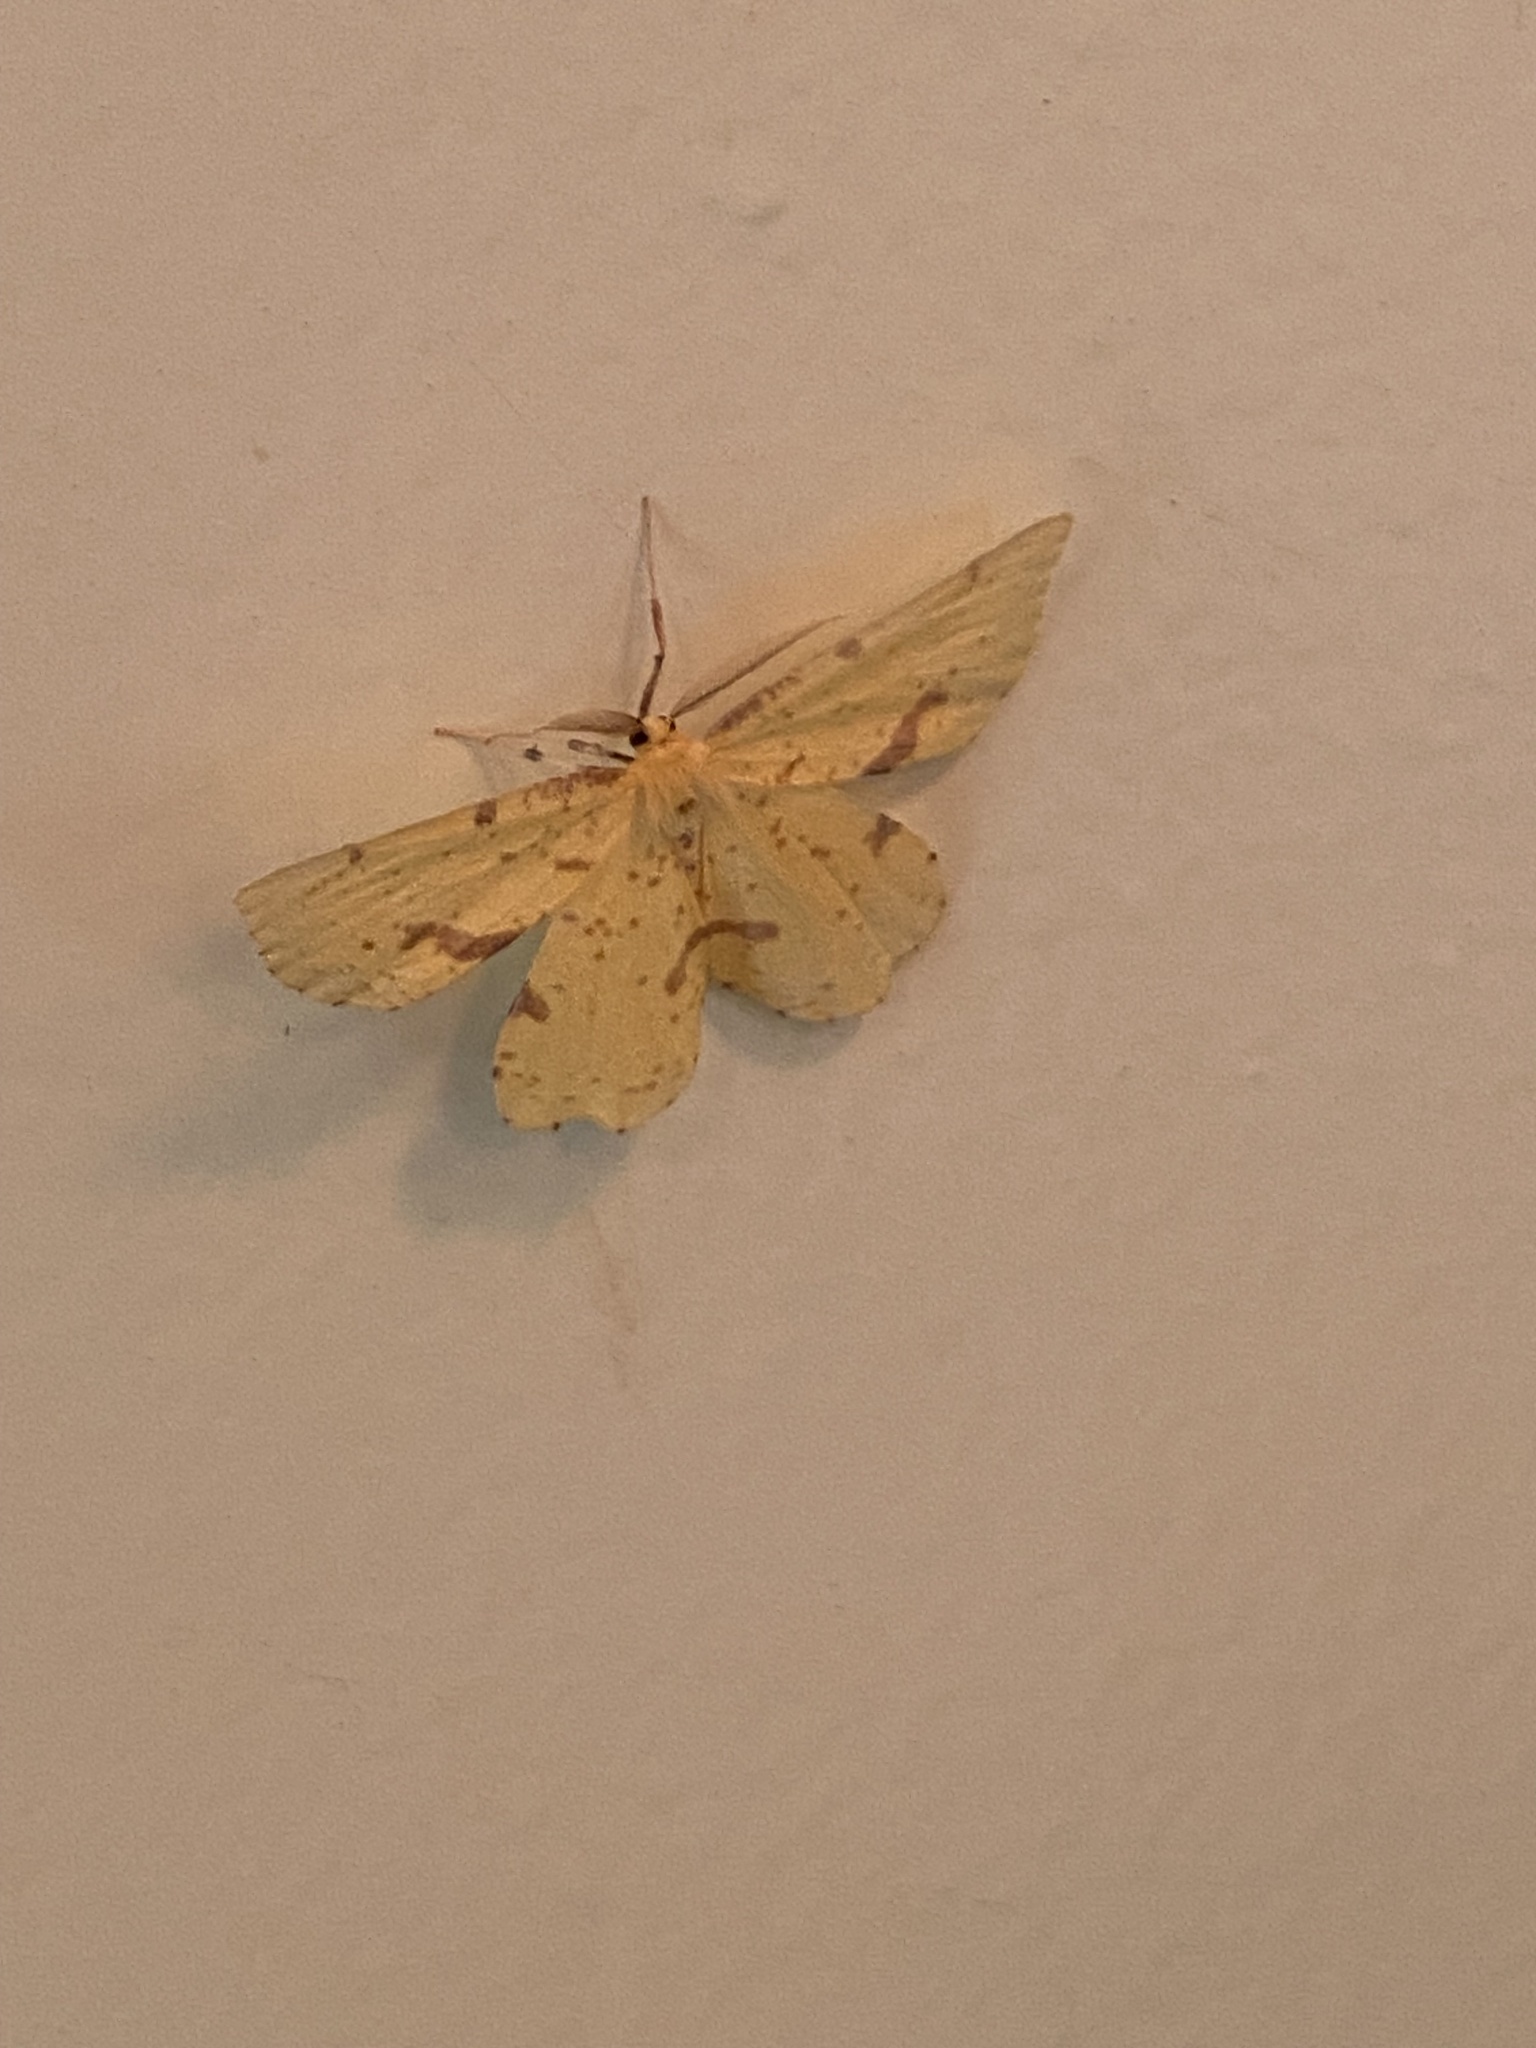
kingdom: Animalia
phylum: Arthropoda
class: Insecta
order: Lepidoptera
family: Geometridae
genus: Xanthotype
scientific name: Xanthotype
